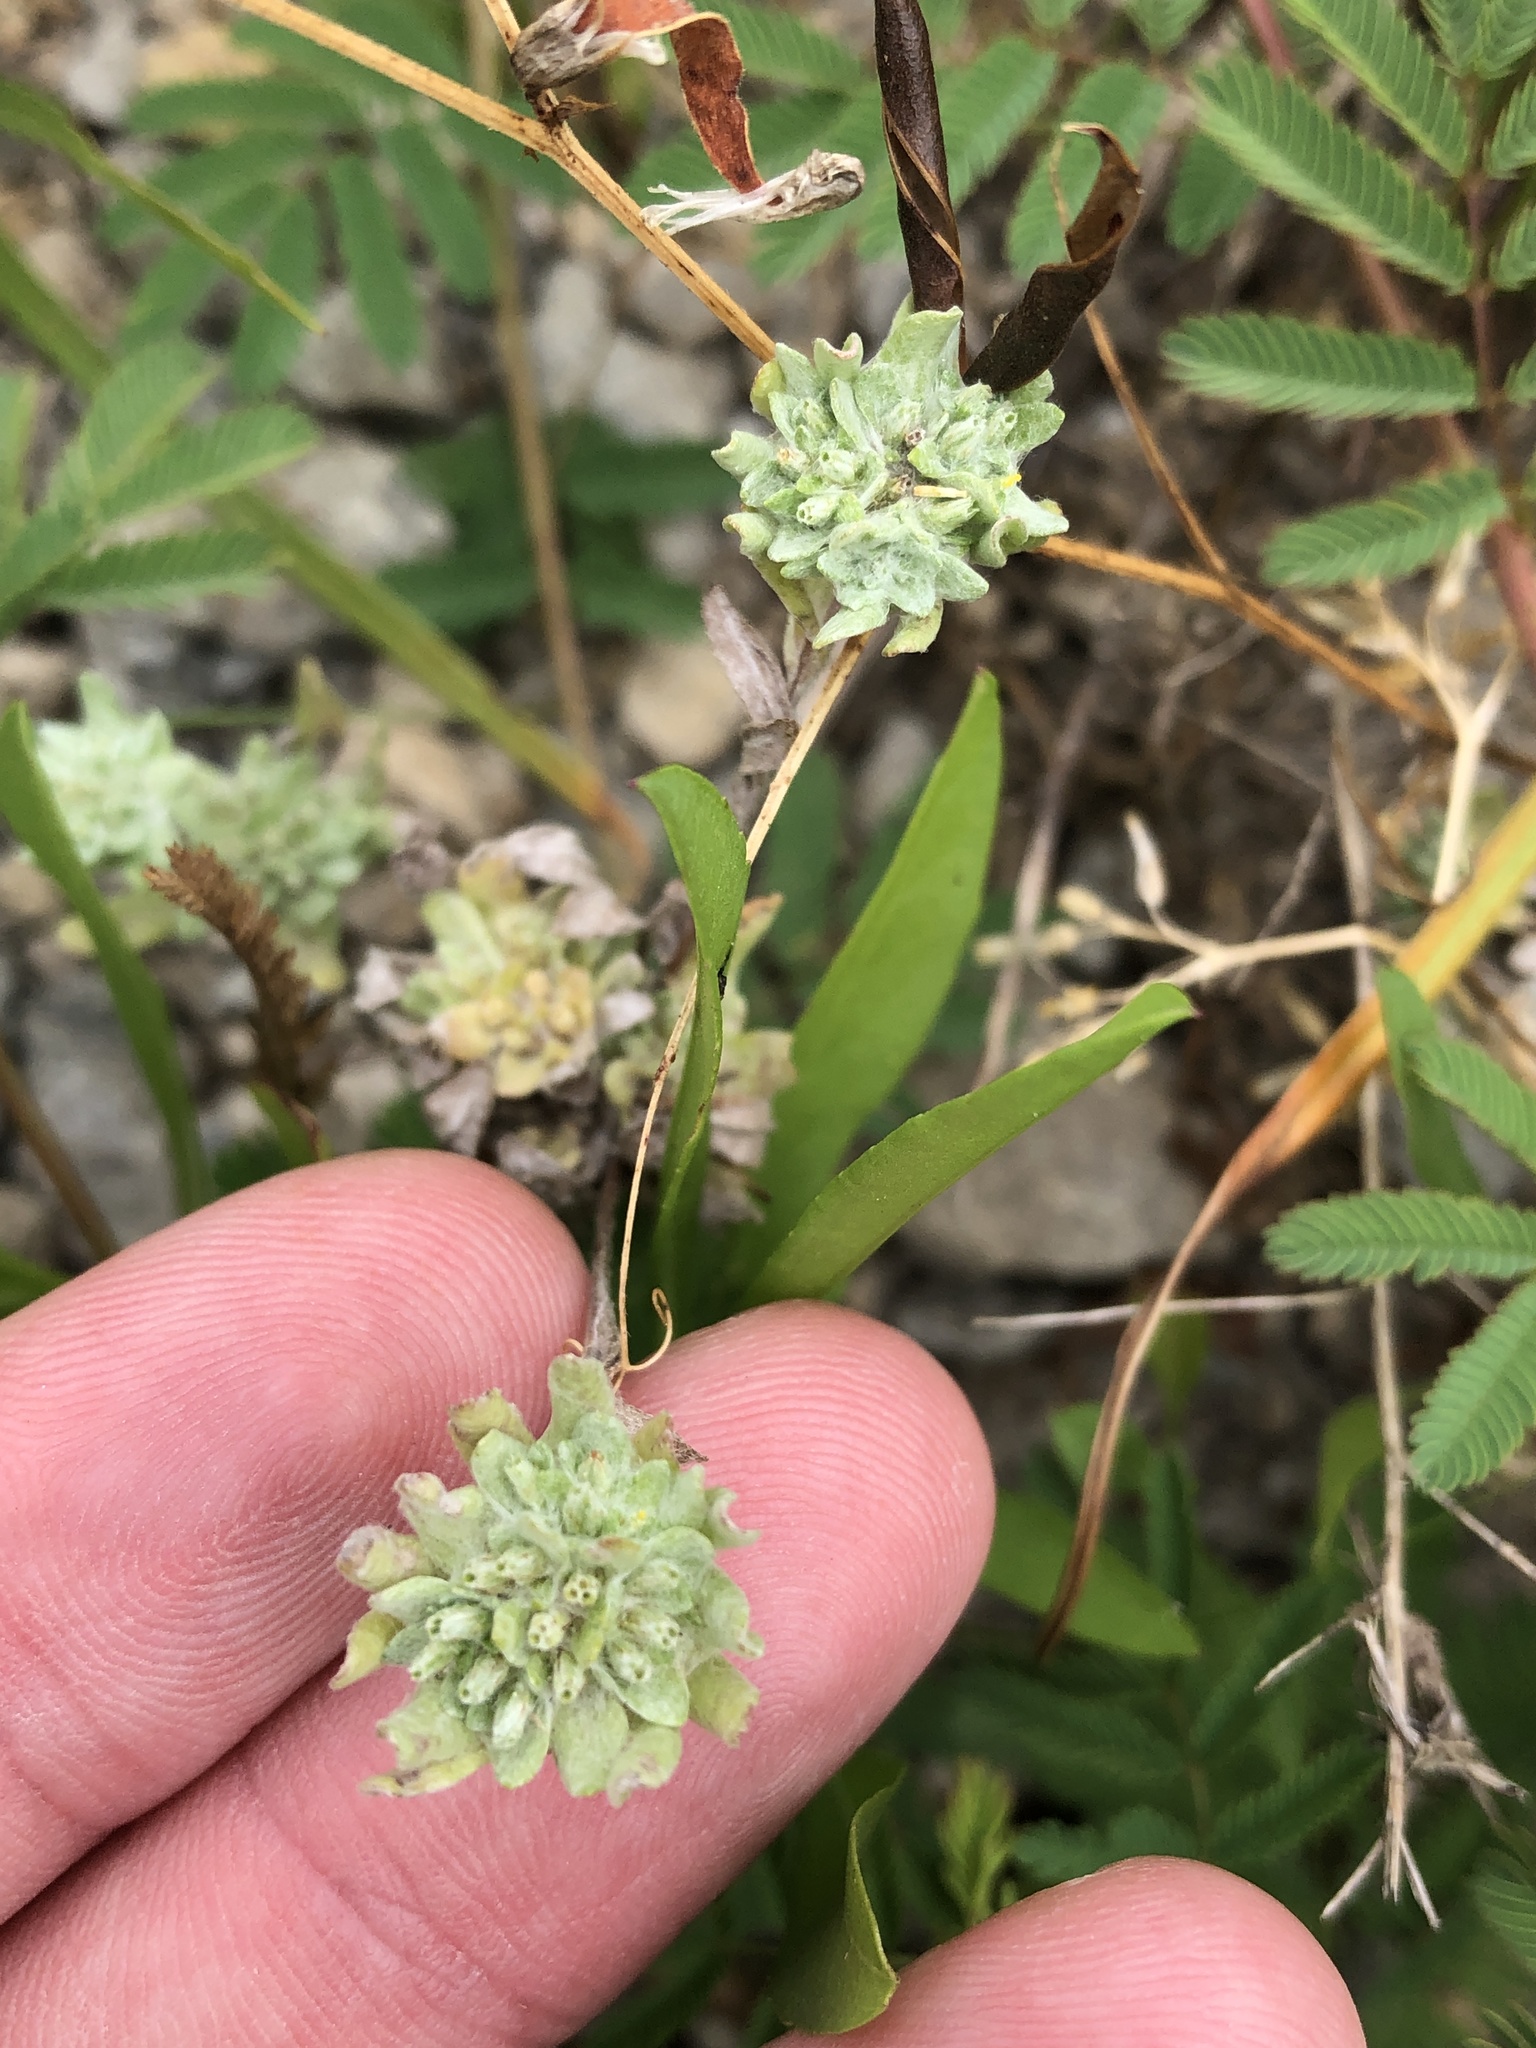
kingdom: Plantae
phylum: Tracheophyta
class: Magnoliopsida
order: Asterales
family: Asteraceae
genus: Diaperia
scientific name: Diaperia prolifera
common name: Big-head rabbit-tobacco
